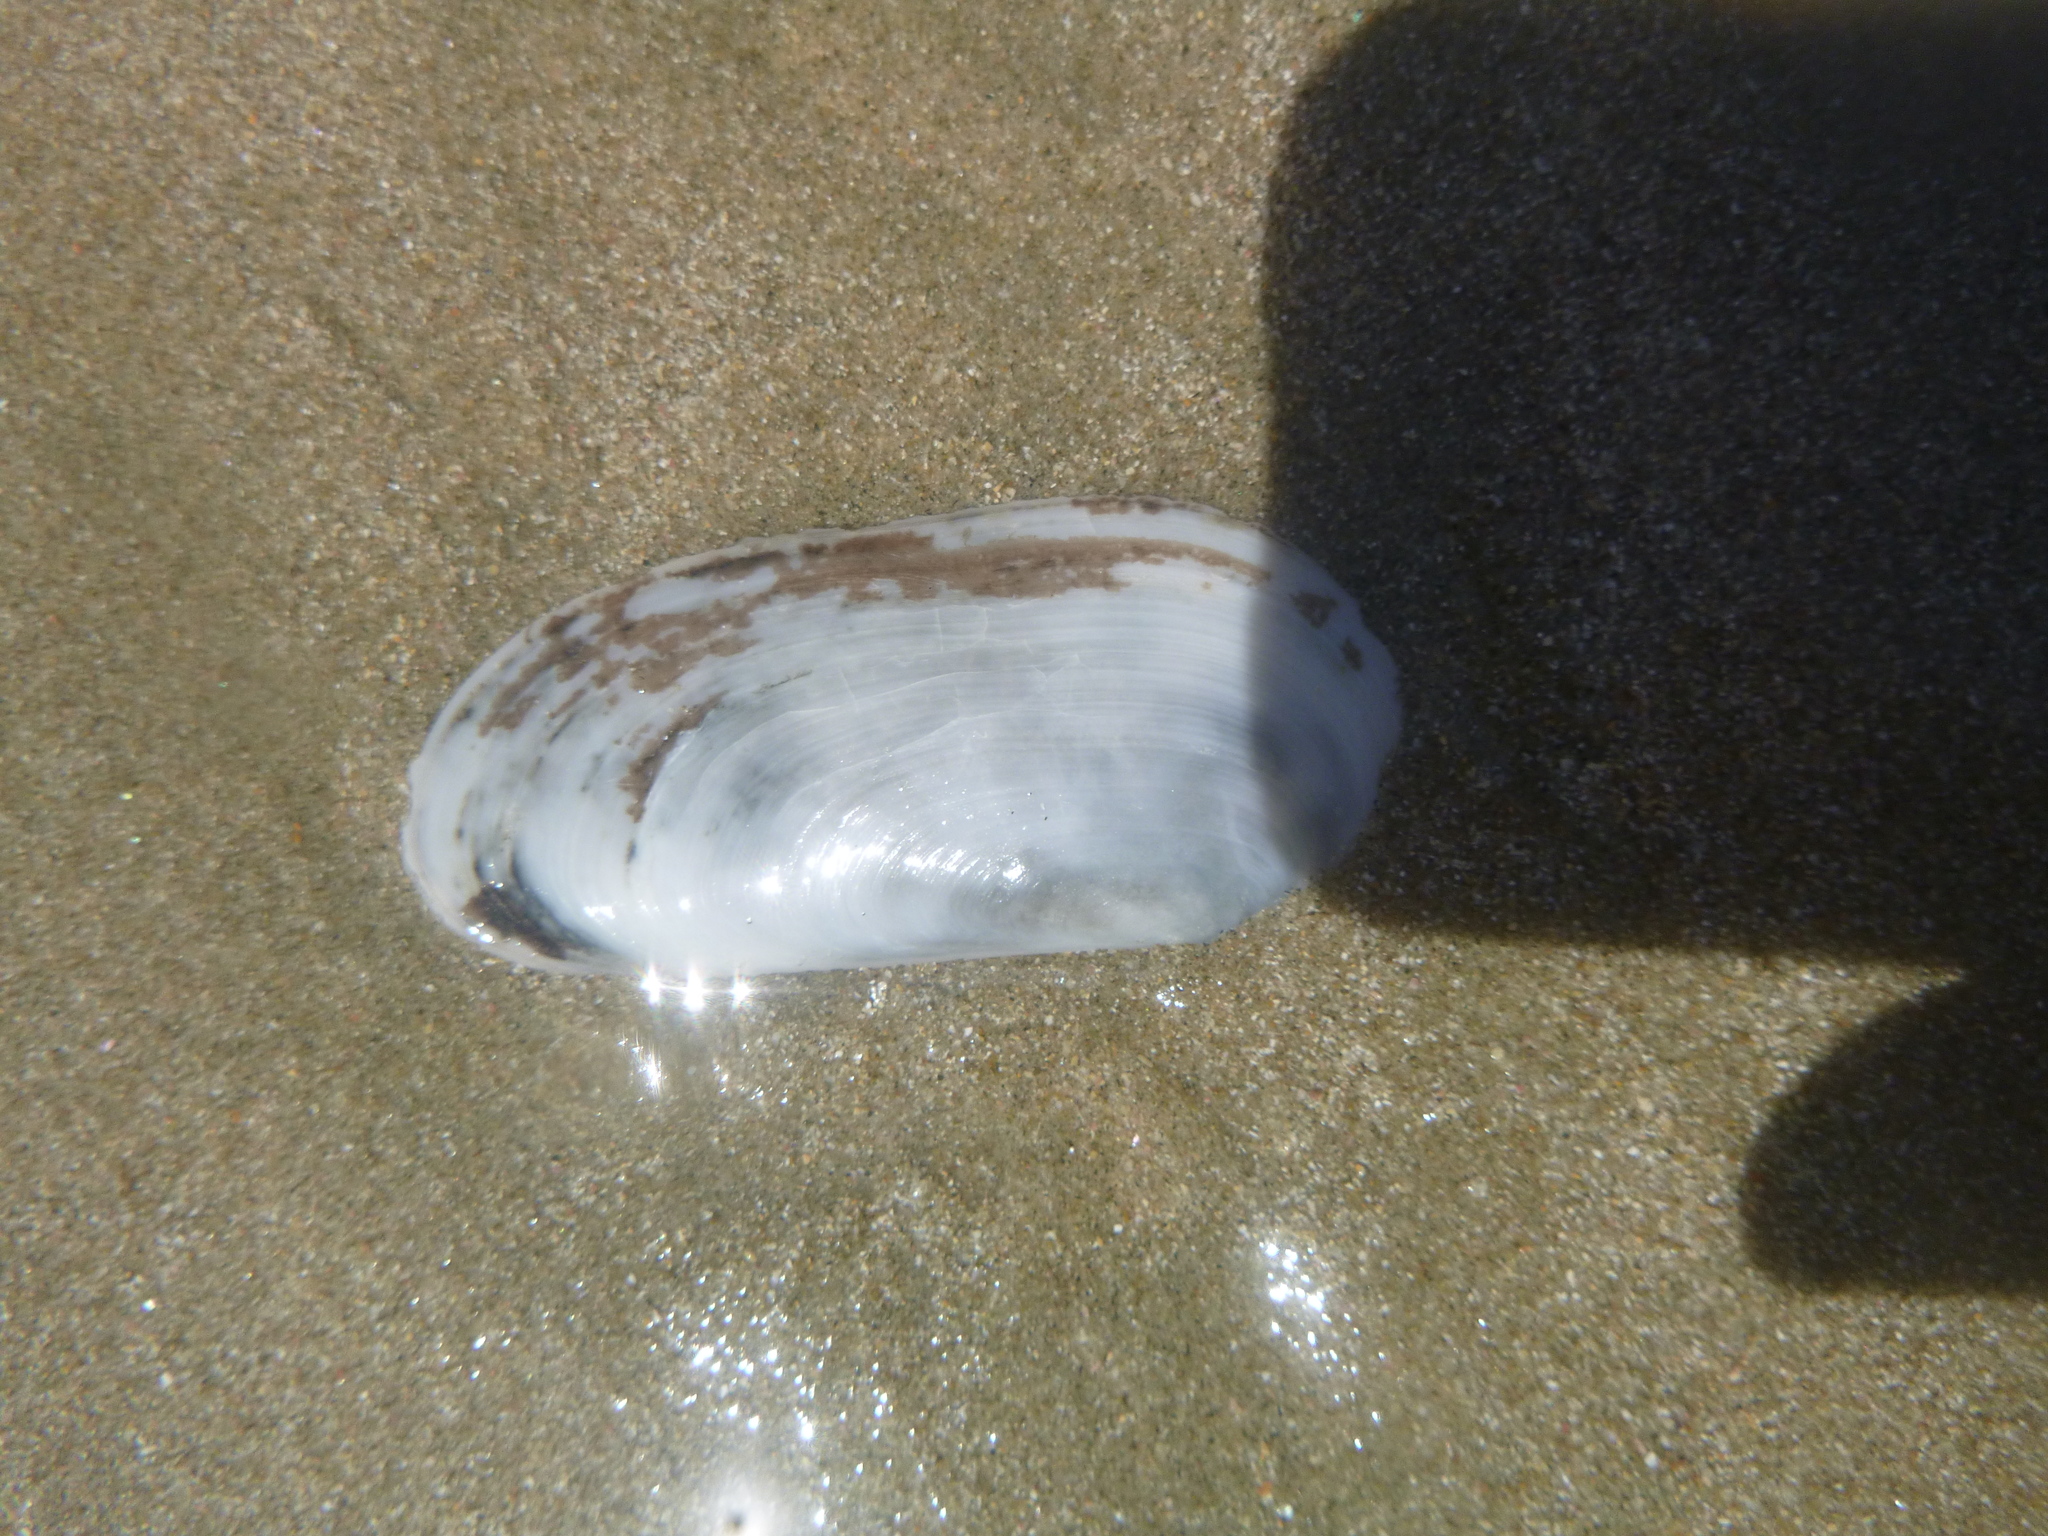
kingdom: Animalia
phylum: Mollusca
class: Bivalvia
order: Venerida
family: Mactridae
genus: Zenatia
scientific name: Zenatia acinaces
